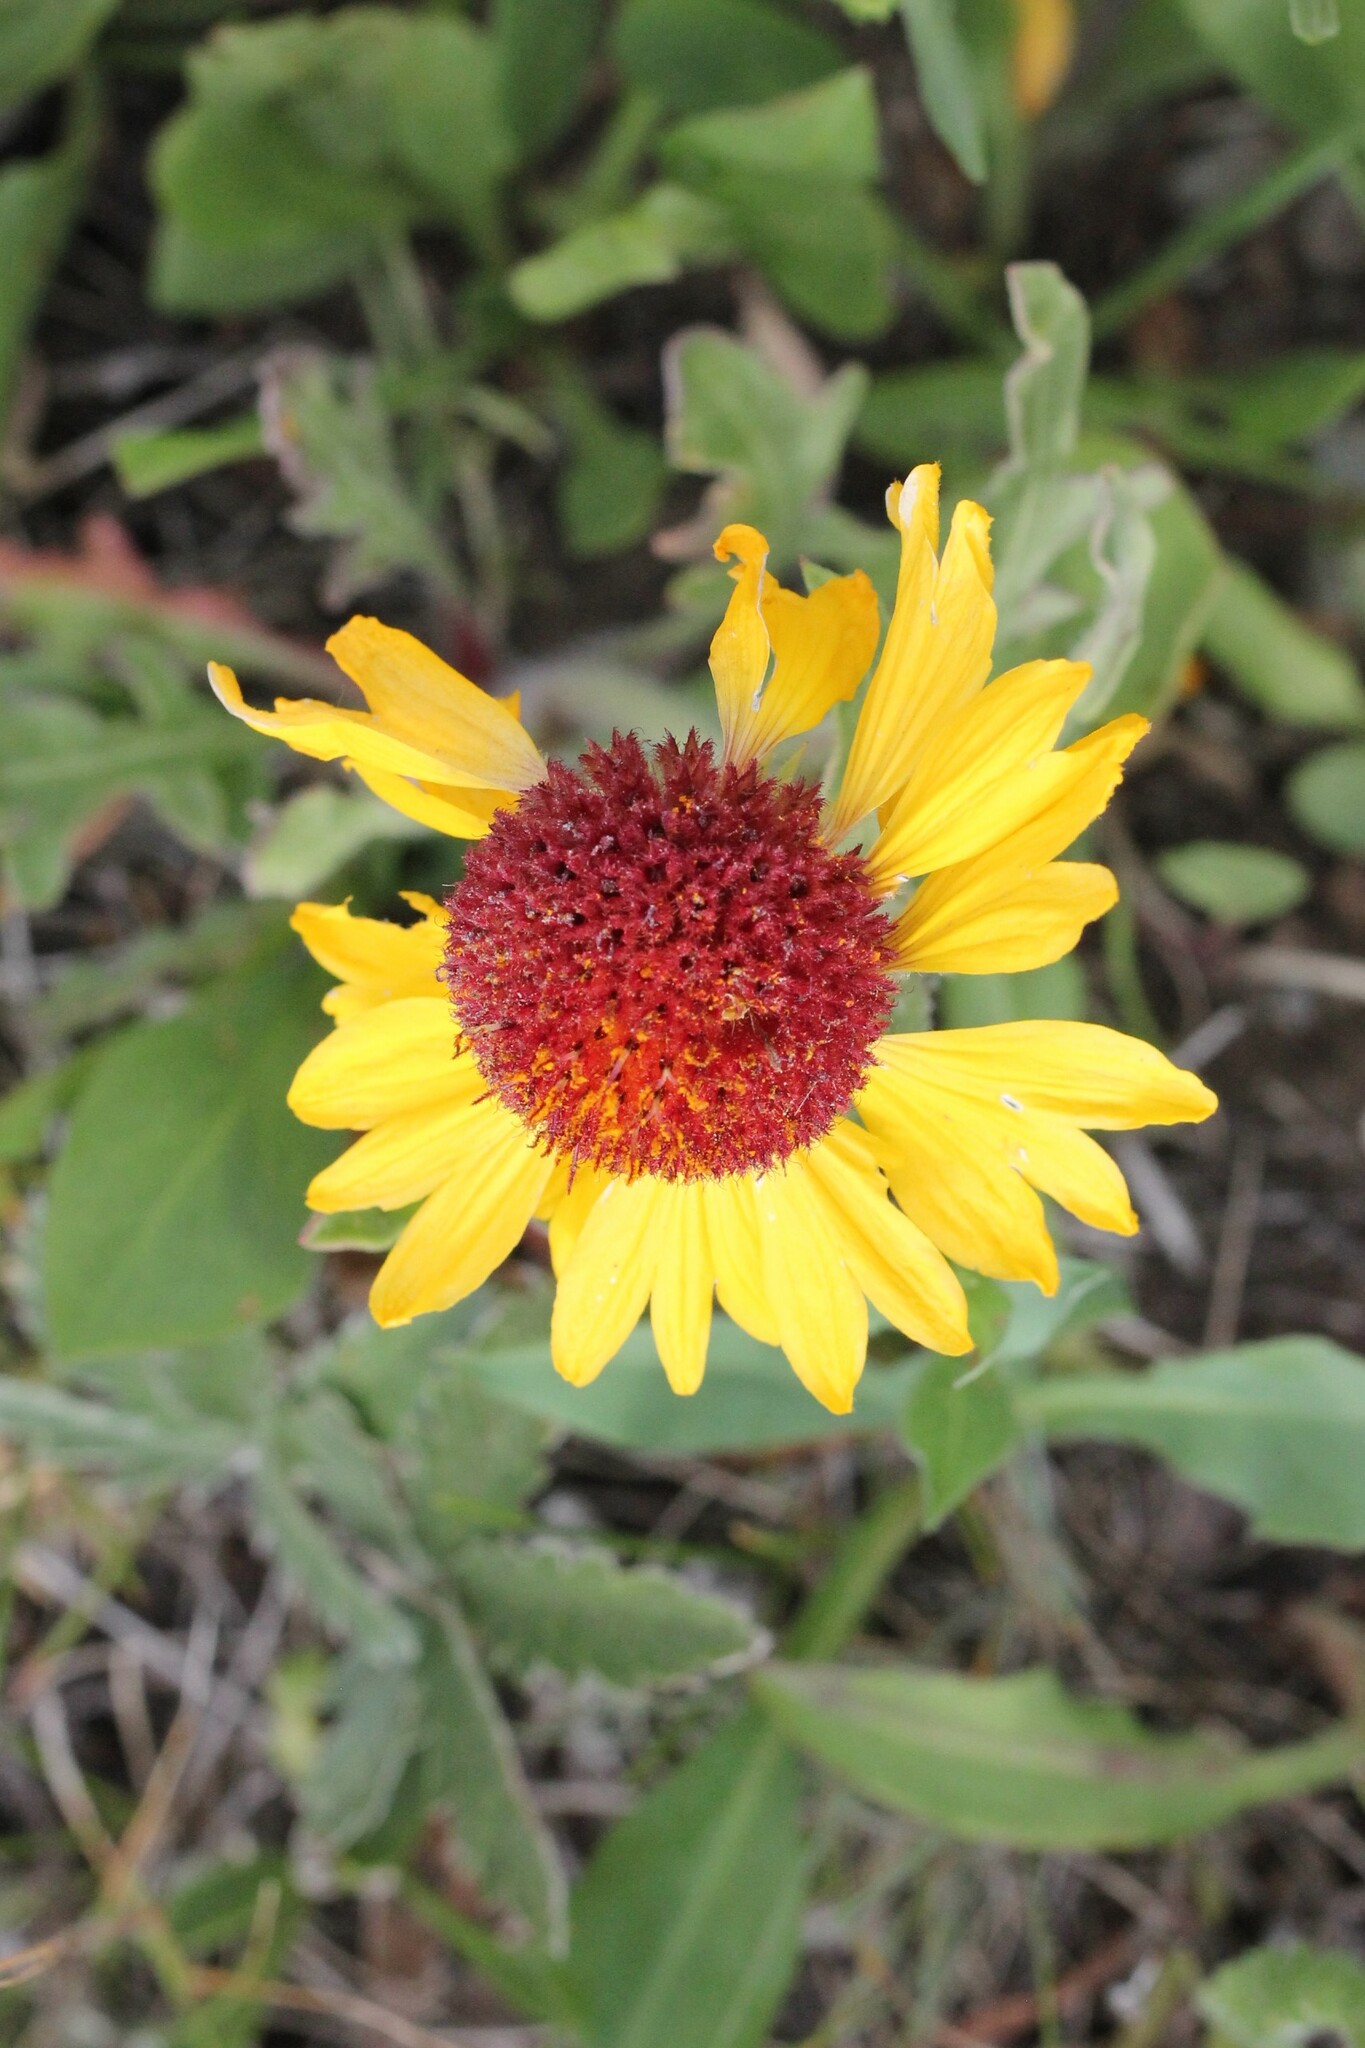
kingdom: Plantae
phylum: Tracheophyta
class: Magnoliopsida
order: Asterales
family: Asteraceae
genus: Gaillardia
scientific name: Gaillardia aristata
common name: Blanket-flower
